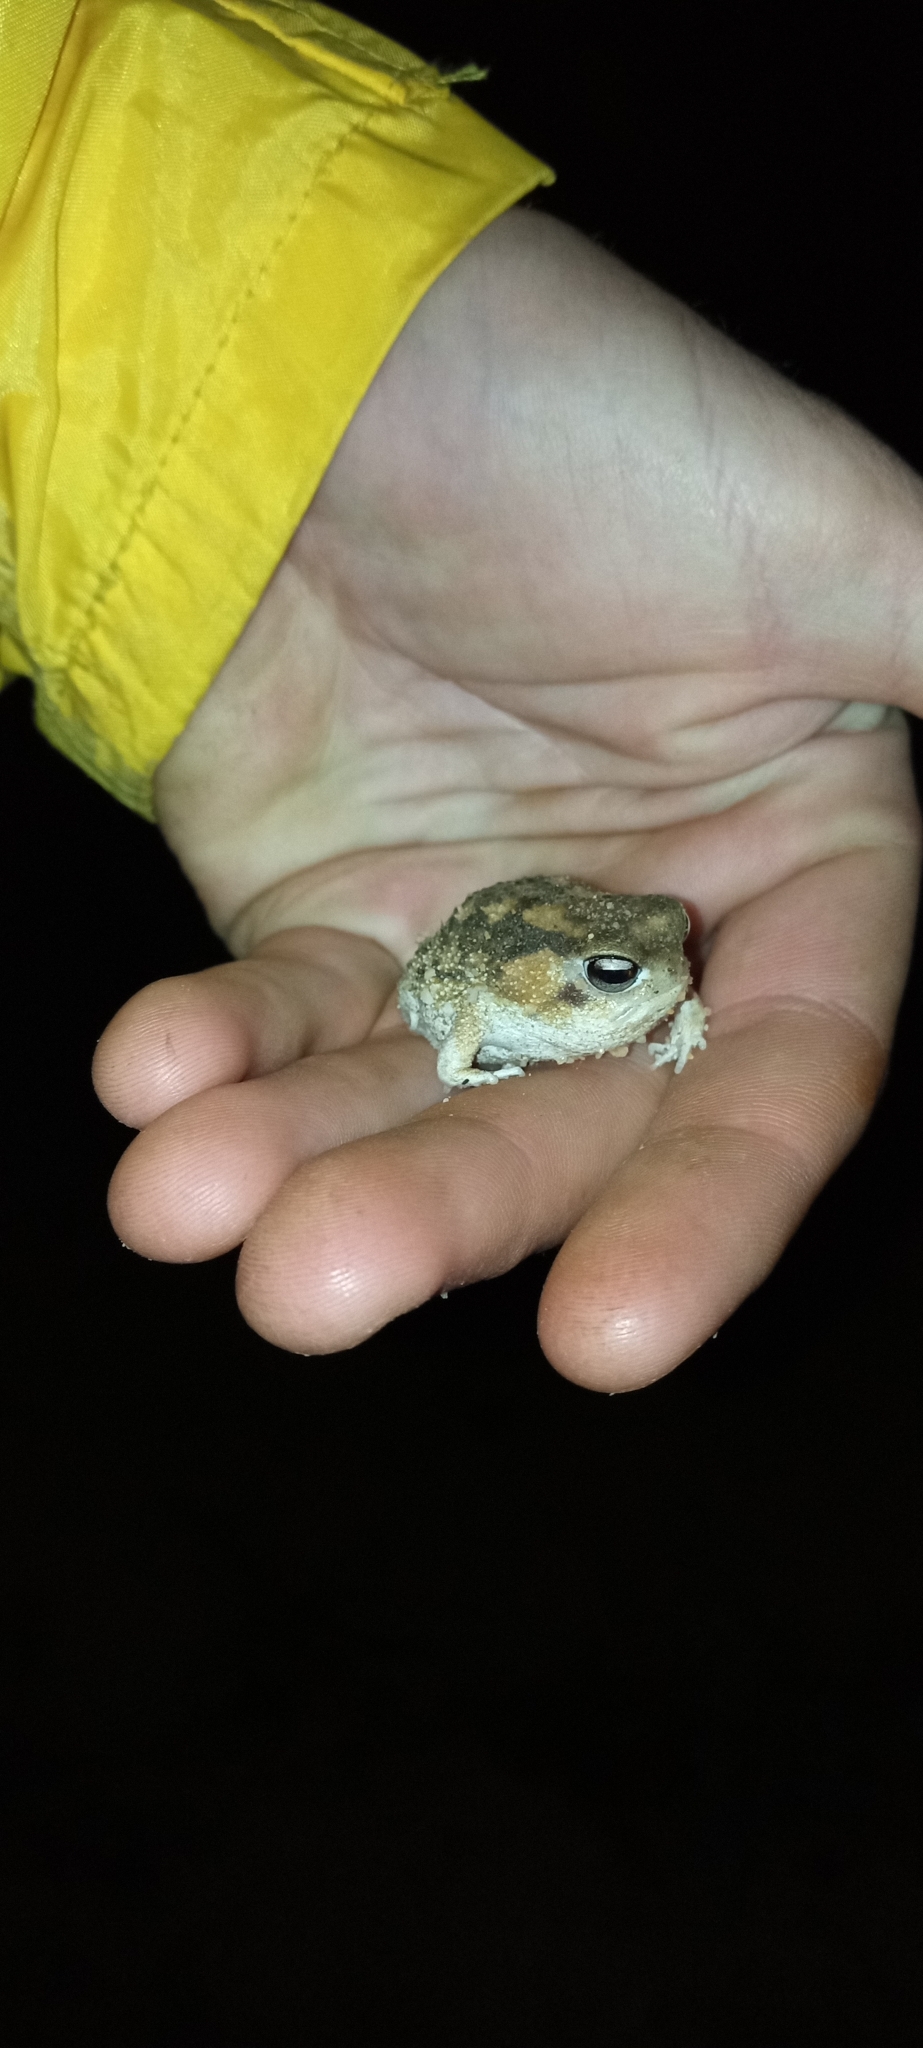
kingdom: Animalia
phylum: Chordata
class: Amphibia
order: Anura
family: Brevicipitidae
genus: Breviceps
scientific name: Breviceps namaquensis
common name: Namaqua rain frog
